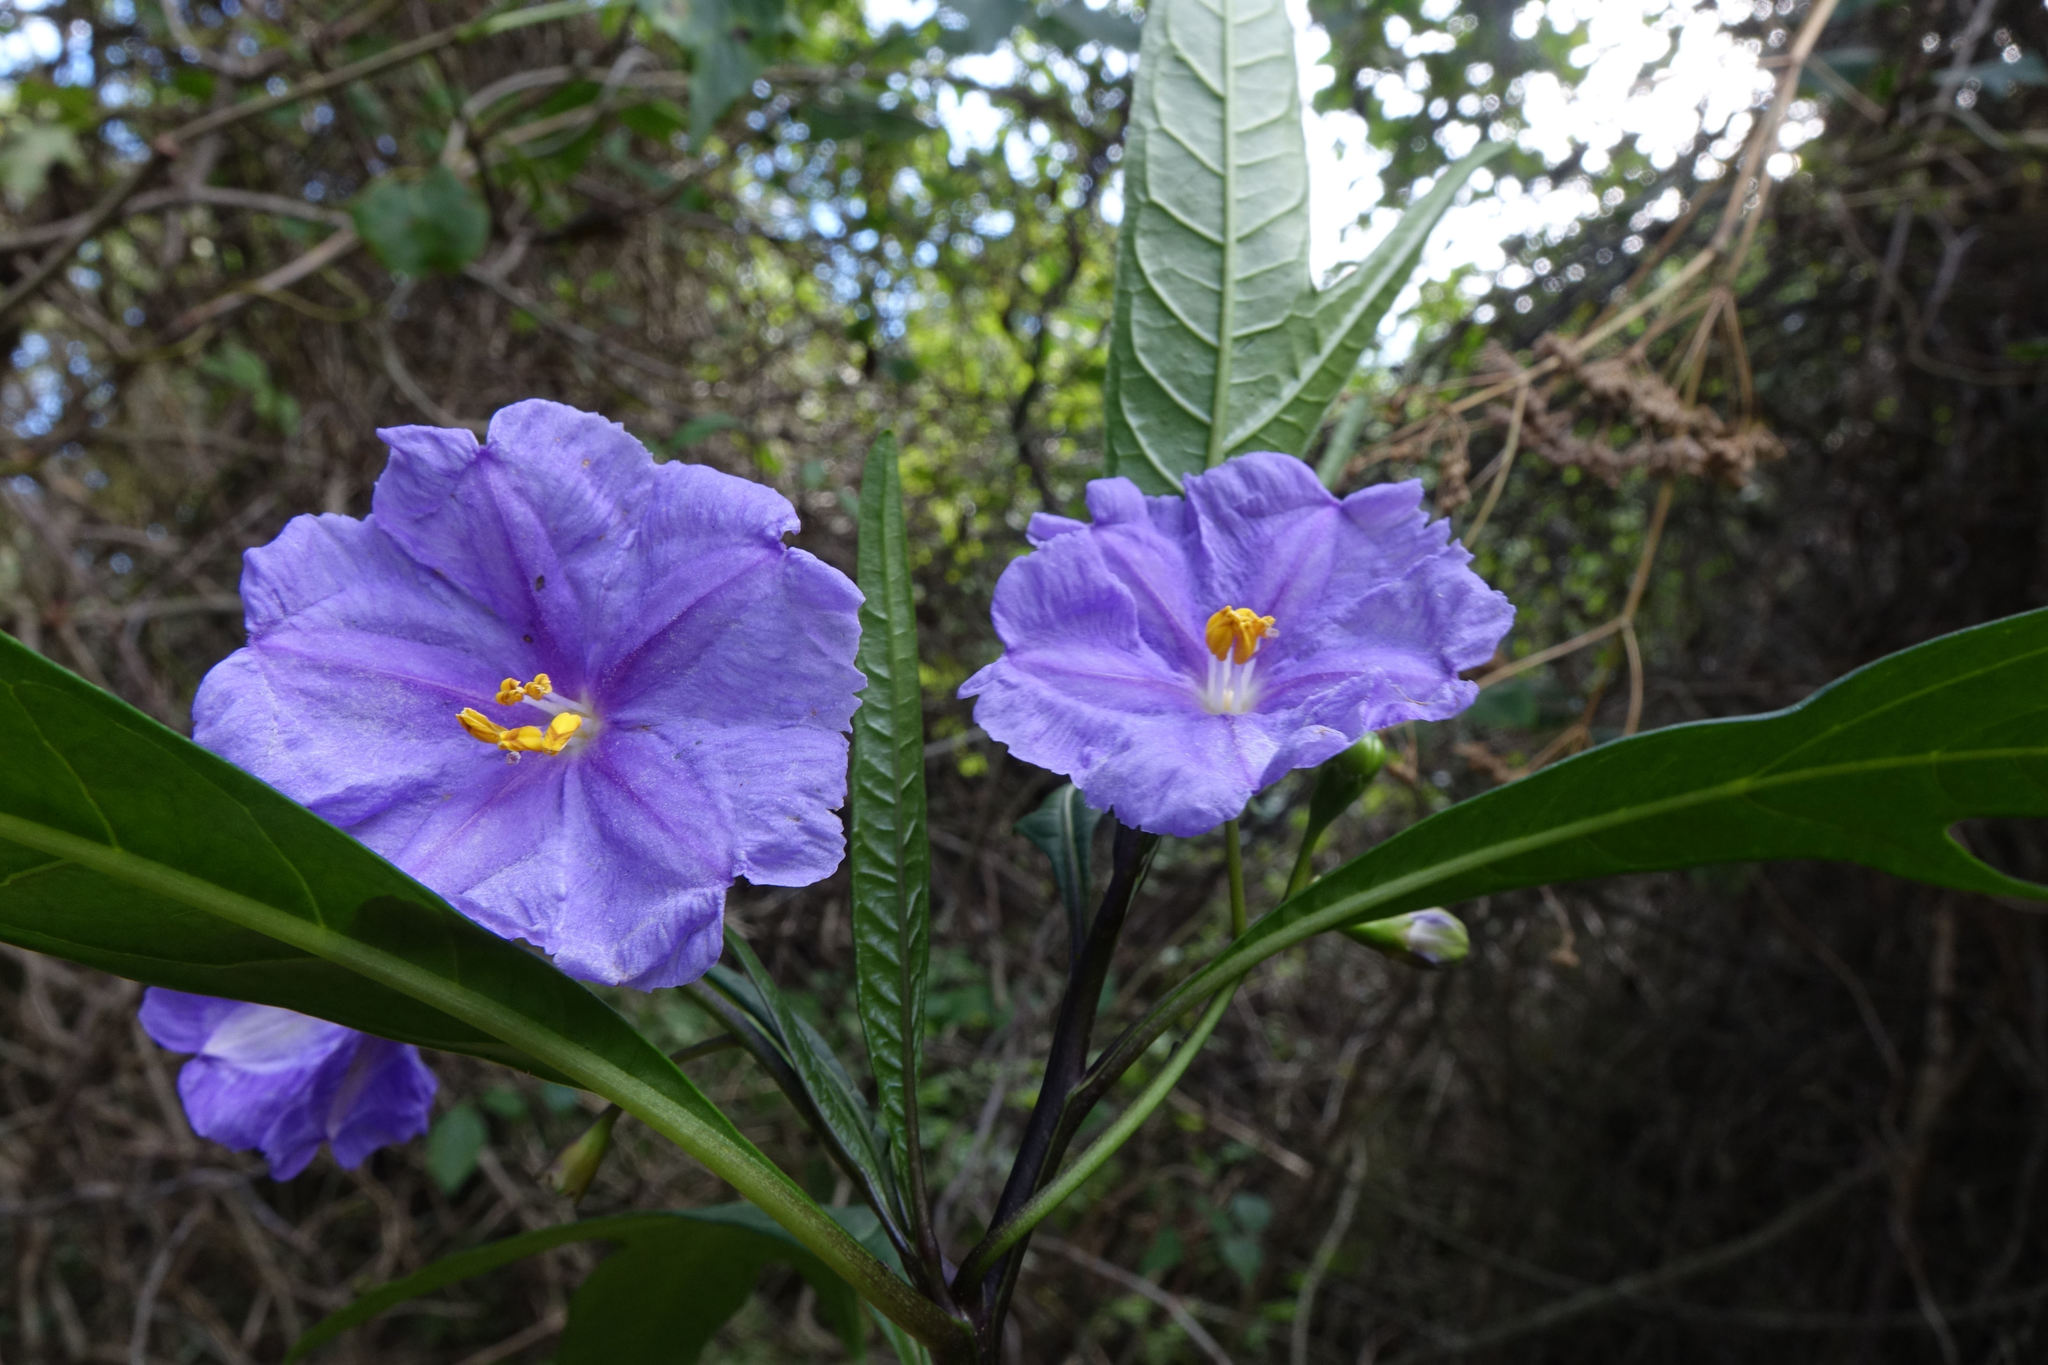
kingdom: Plantae
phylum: Tracheophyta
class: Magnoliopsida
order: Solanales
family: Solanaceae
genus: Solanum
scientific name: Solanum laciniatum
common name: Kangaroo-apple
